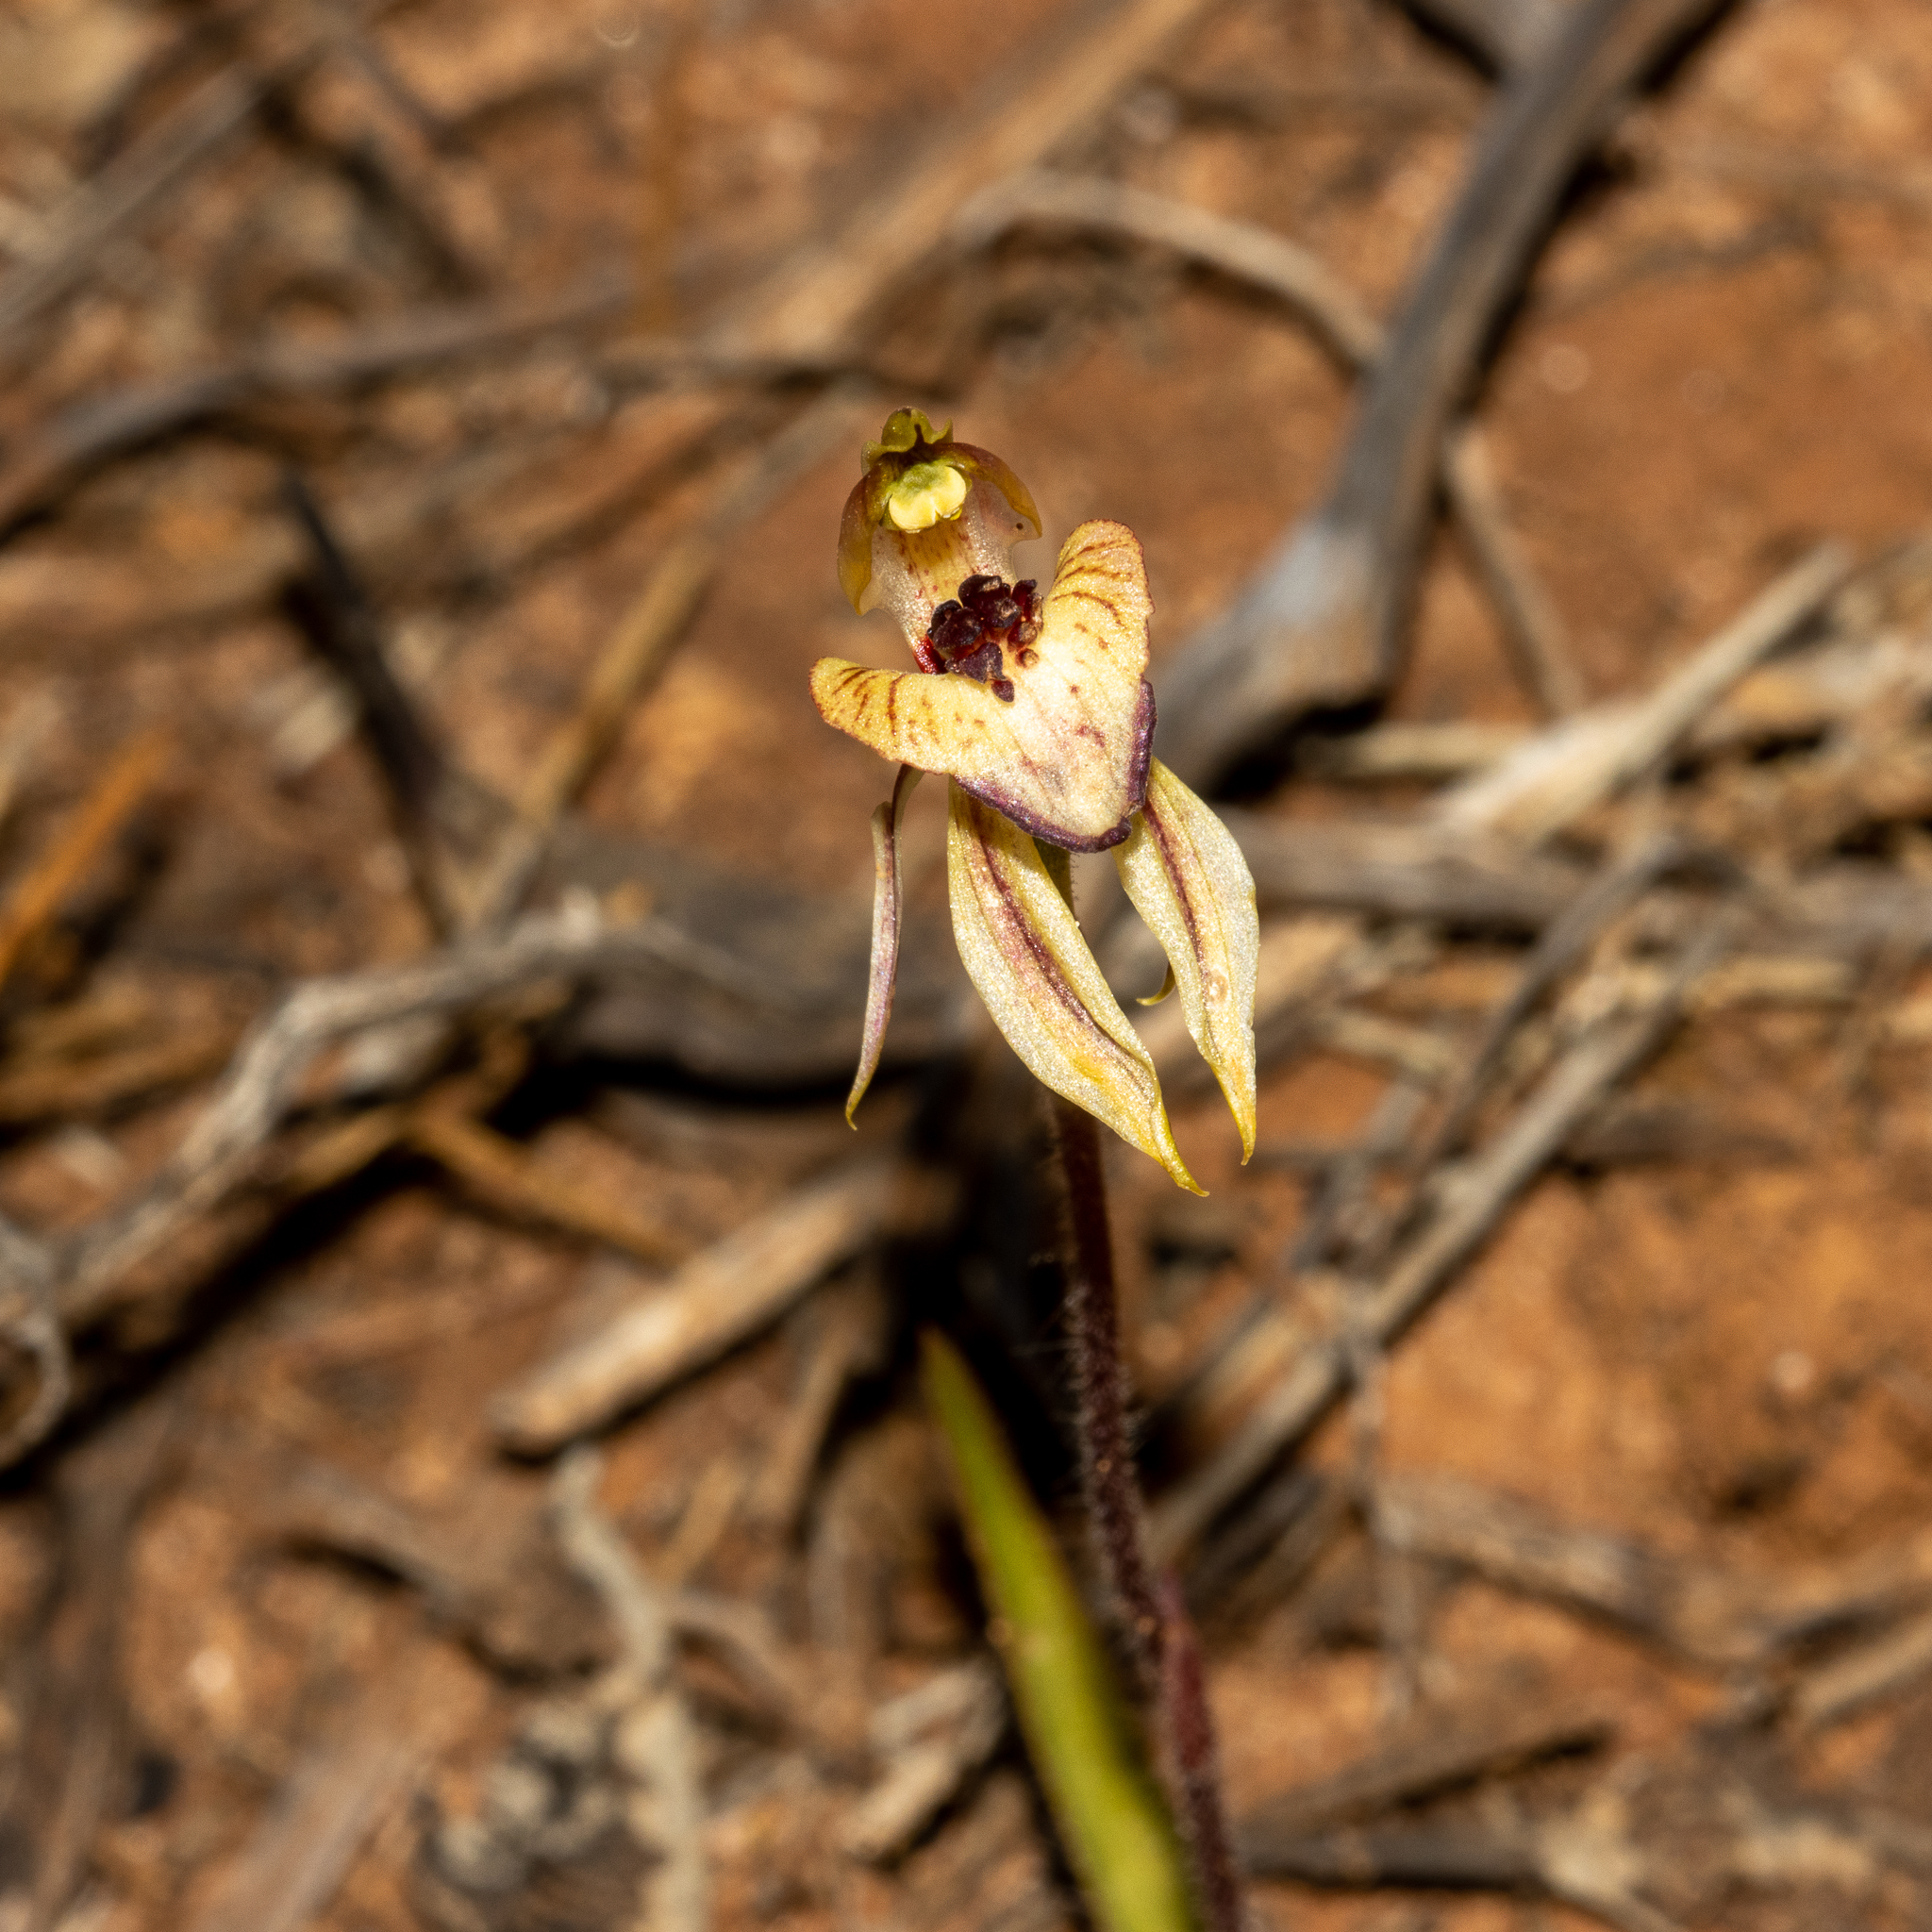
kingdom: Plantae
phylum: Tracheophyta
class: Liliopsida
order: Asparagales
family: Orchidaceae
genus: Caladenia
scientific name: Caladenia cardiochila
